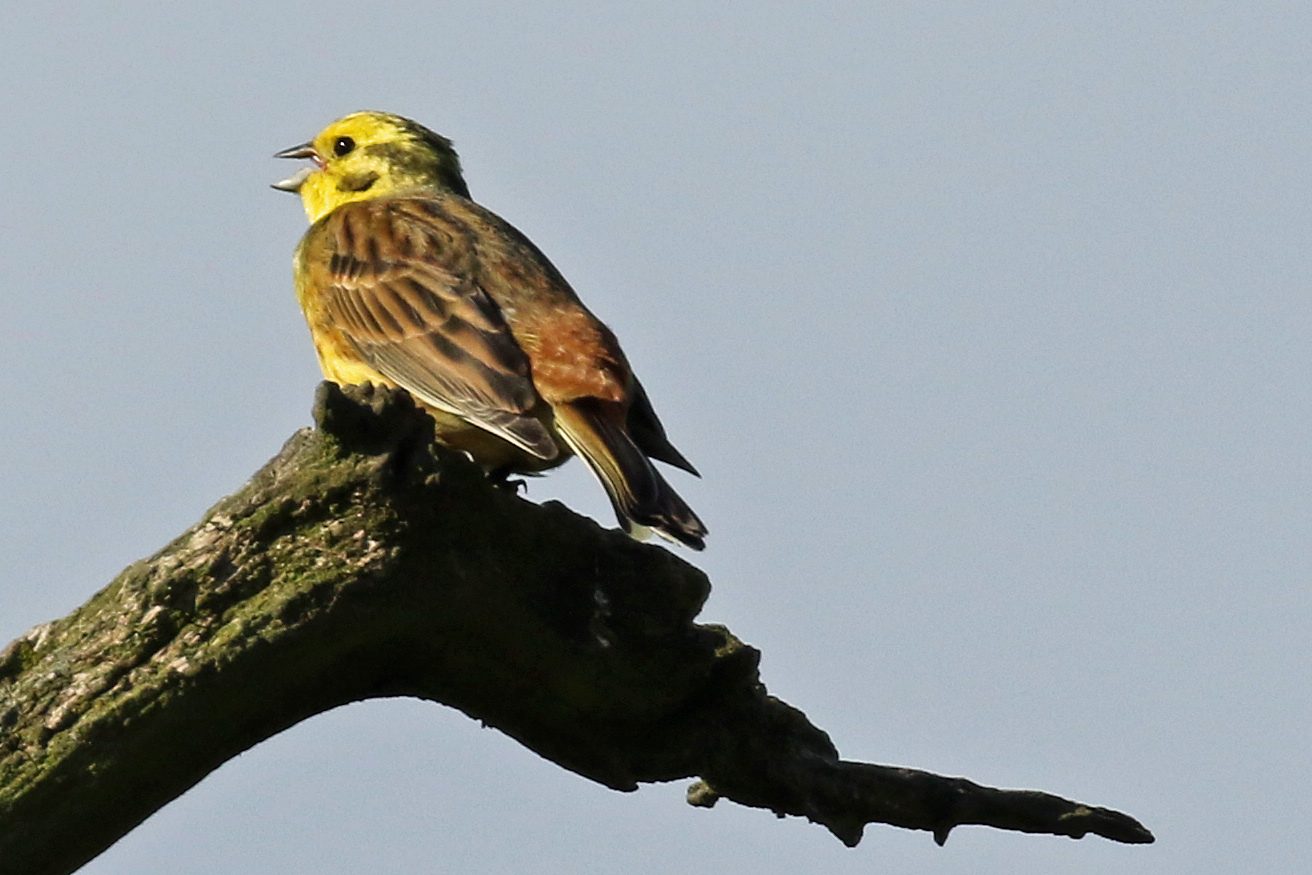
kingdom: Animalia
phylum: Chordata
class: Aves
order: Passeriformes
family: Emberizidae
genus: Emberiza
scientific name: Emberiza citrinella
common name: Yellowhammer
